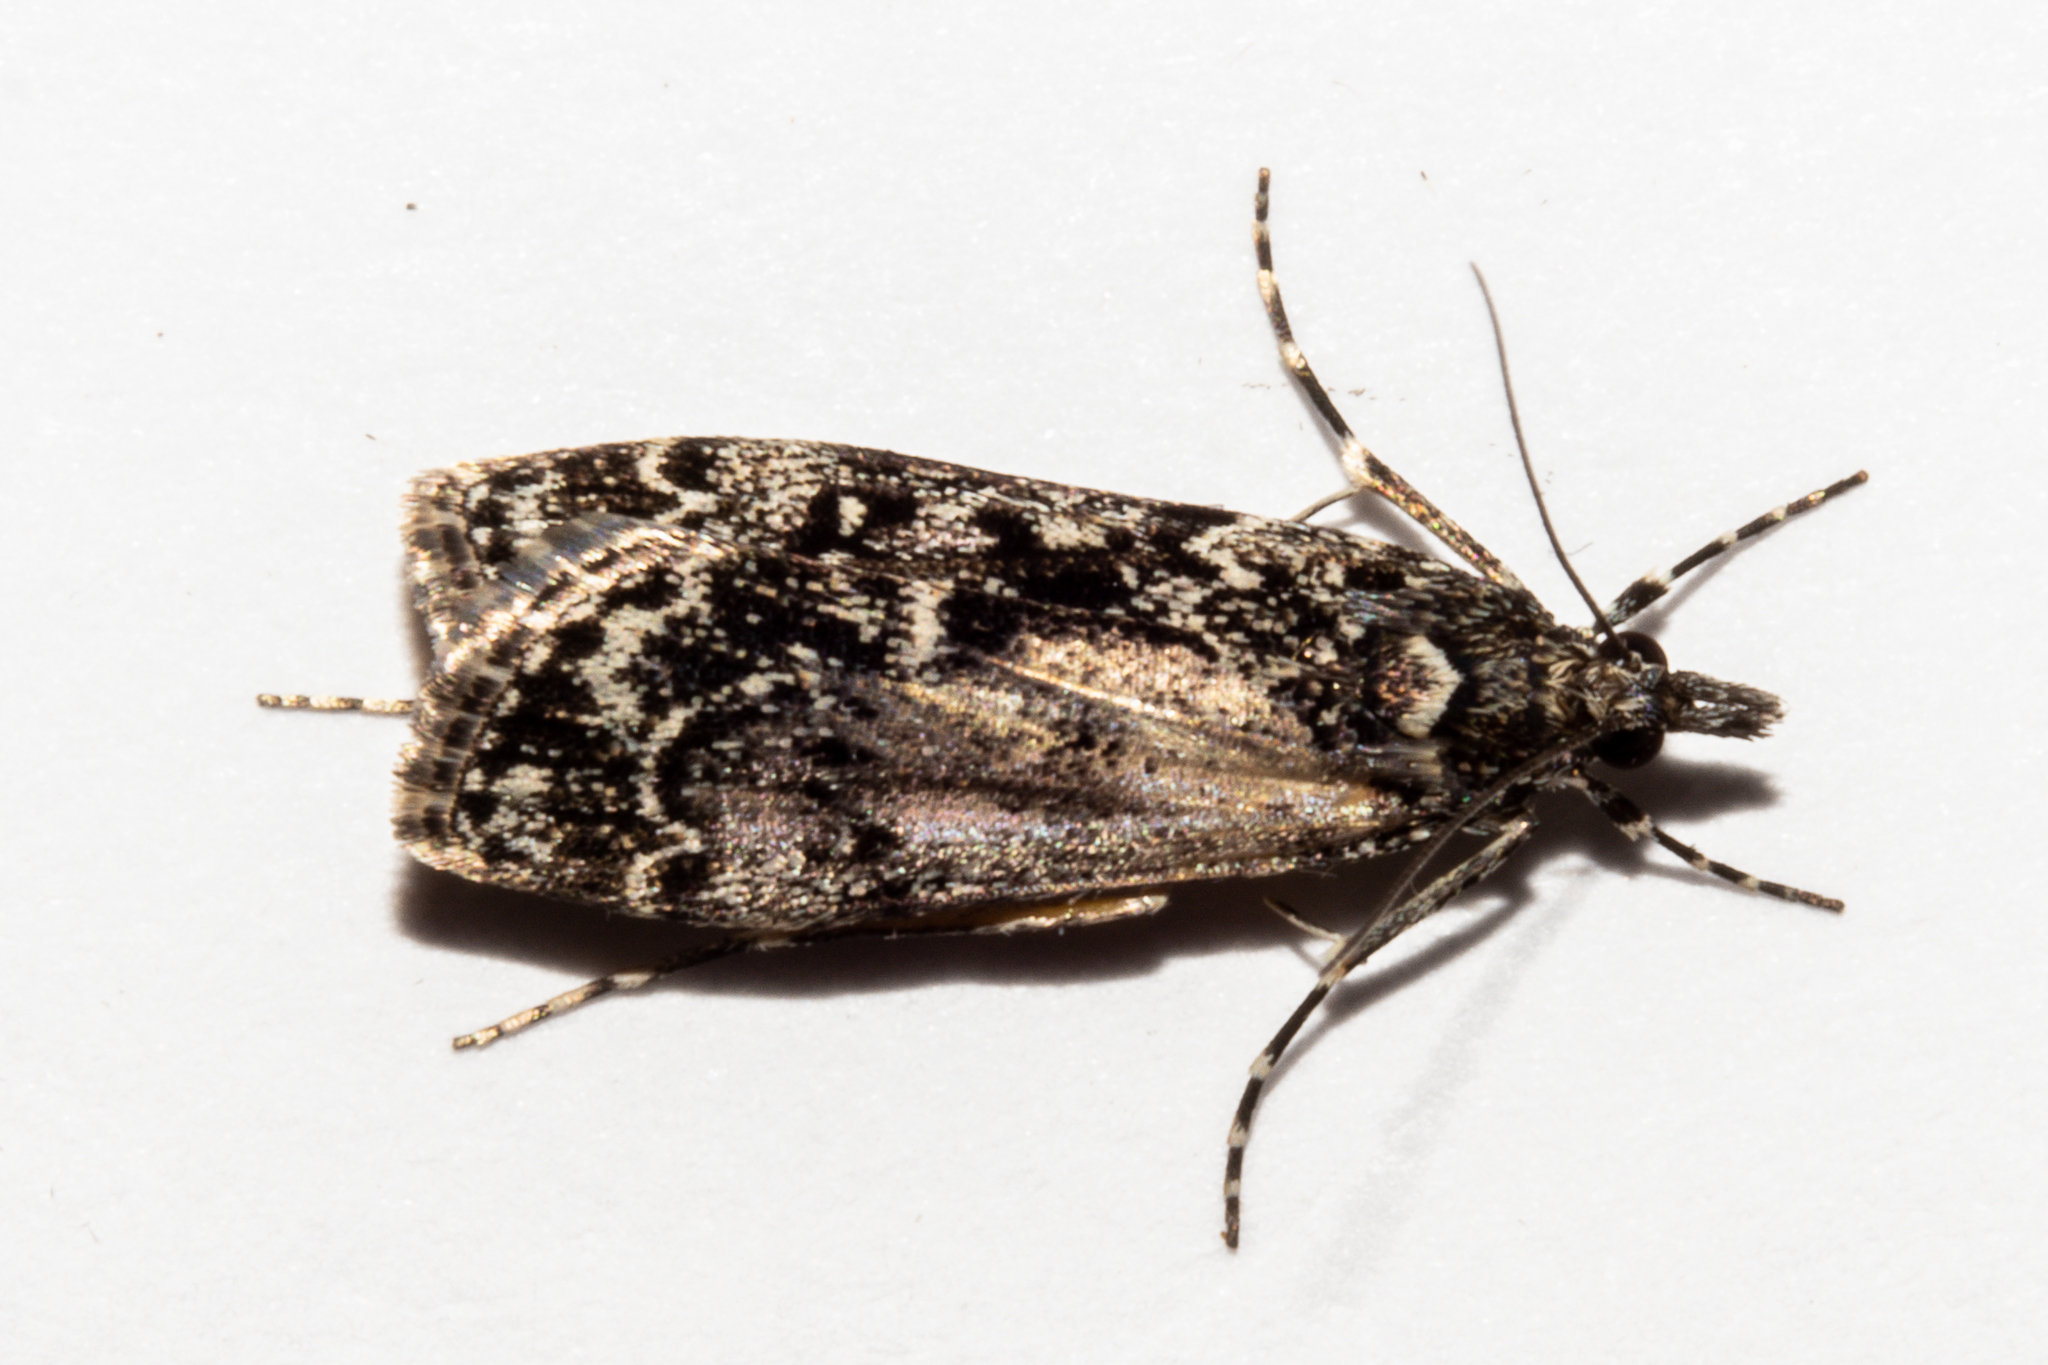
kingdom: Animalia
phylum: Arthropoda
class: Insecta
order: Lepidoptera
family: Crambidae
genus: Eudonia
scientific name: Eudonia philerga
